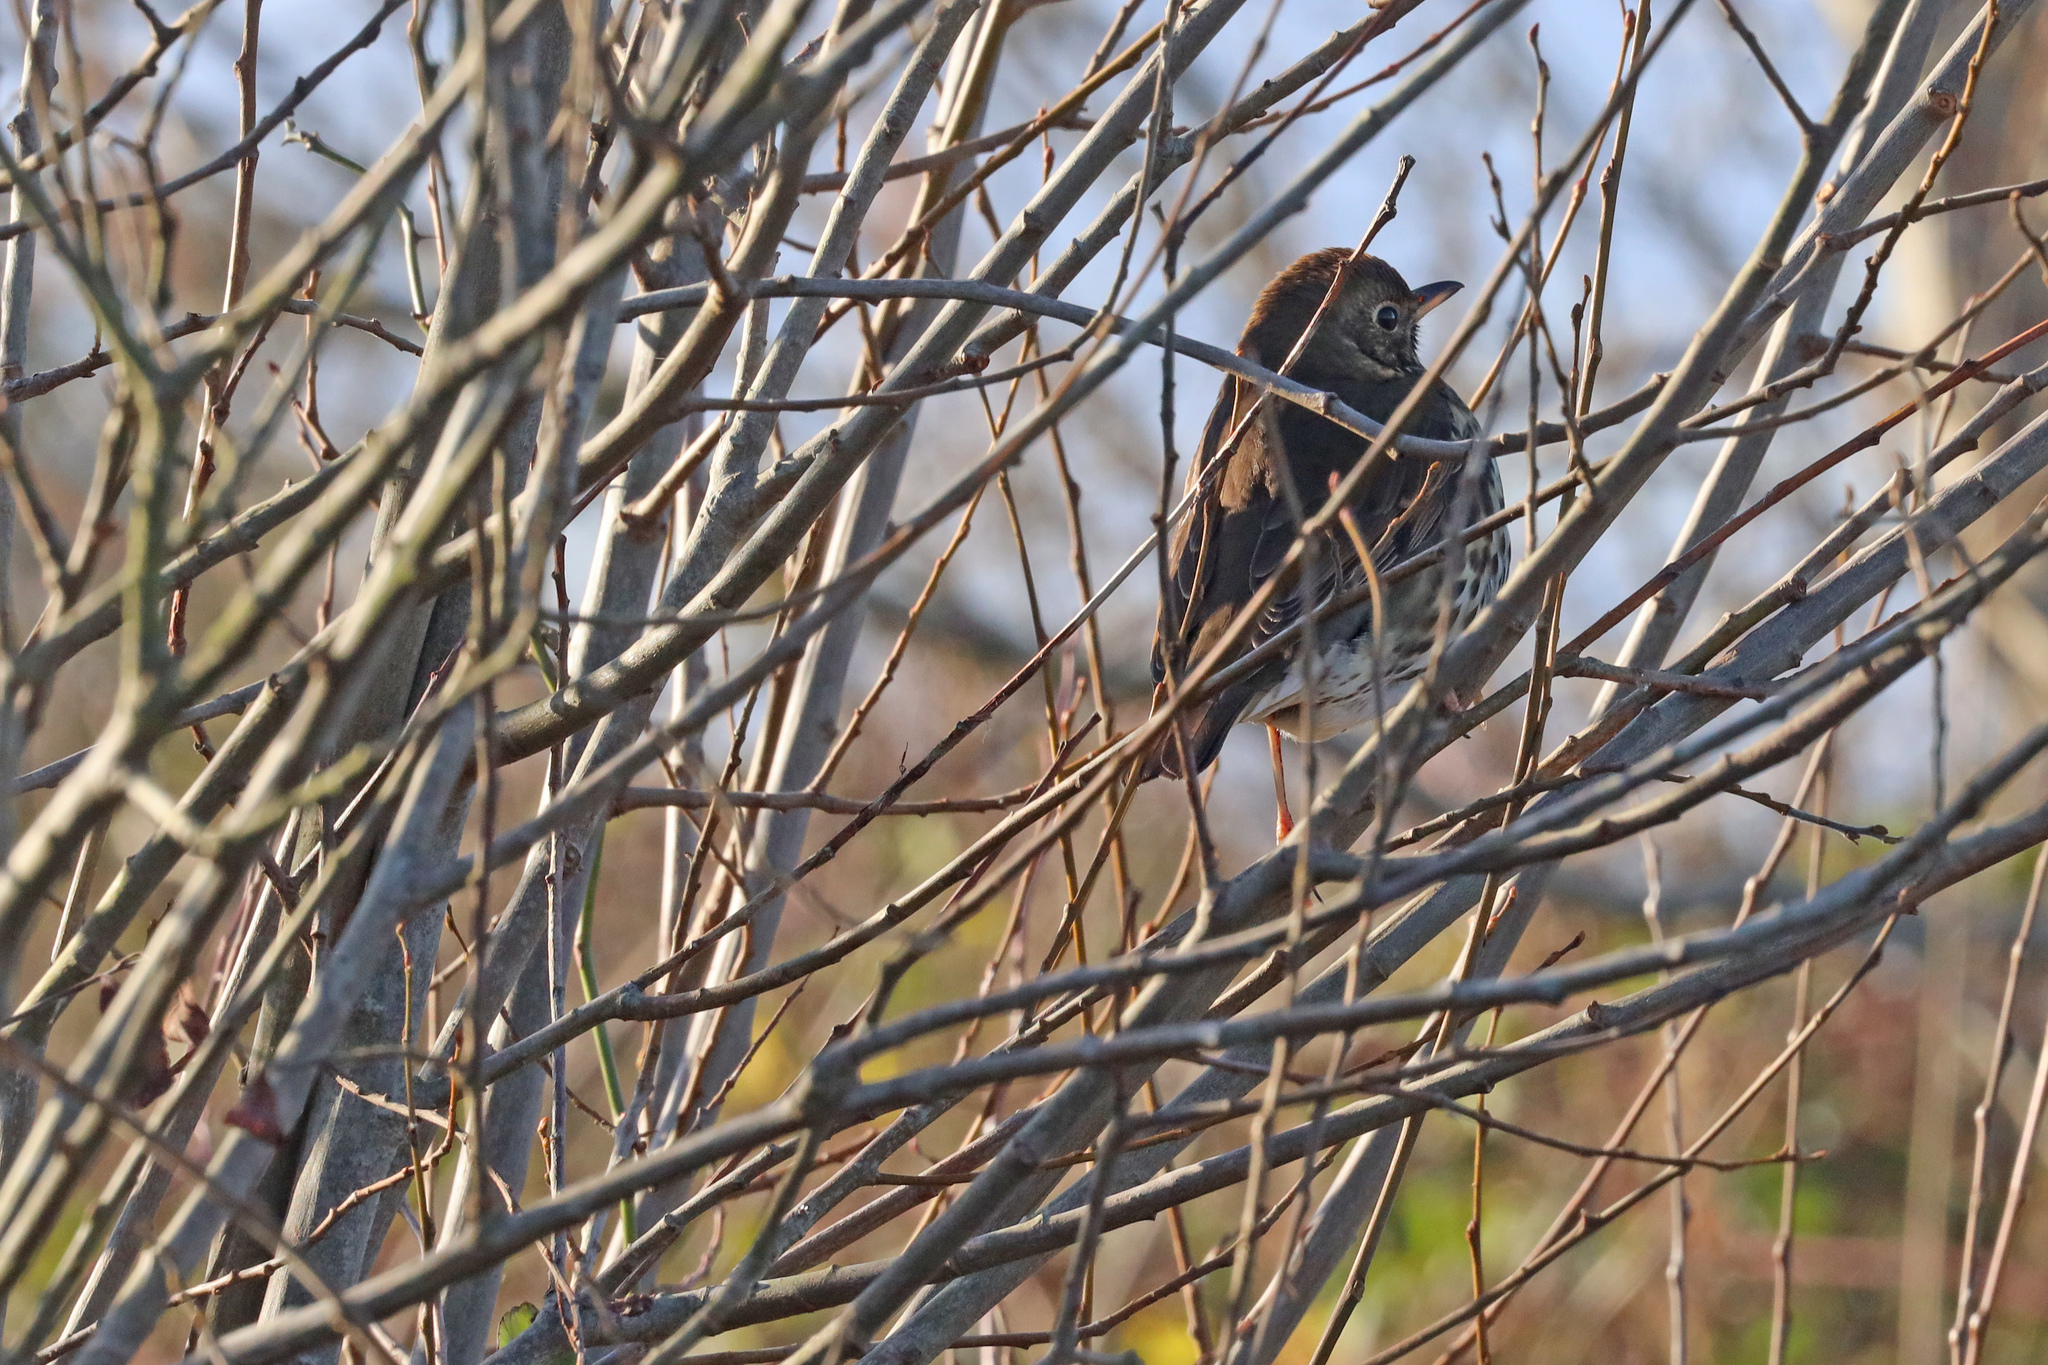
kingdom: Animalia
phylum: Chordata
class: Aves
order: Passeriformes
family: Turdidae
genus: Turdus
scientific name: Turdus philomelos
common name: Song thrush
